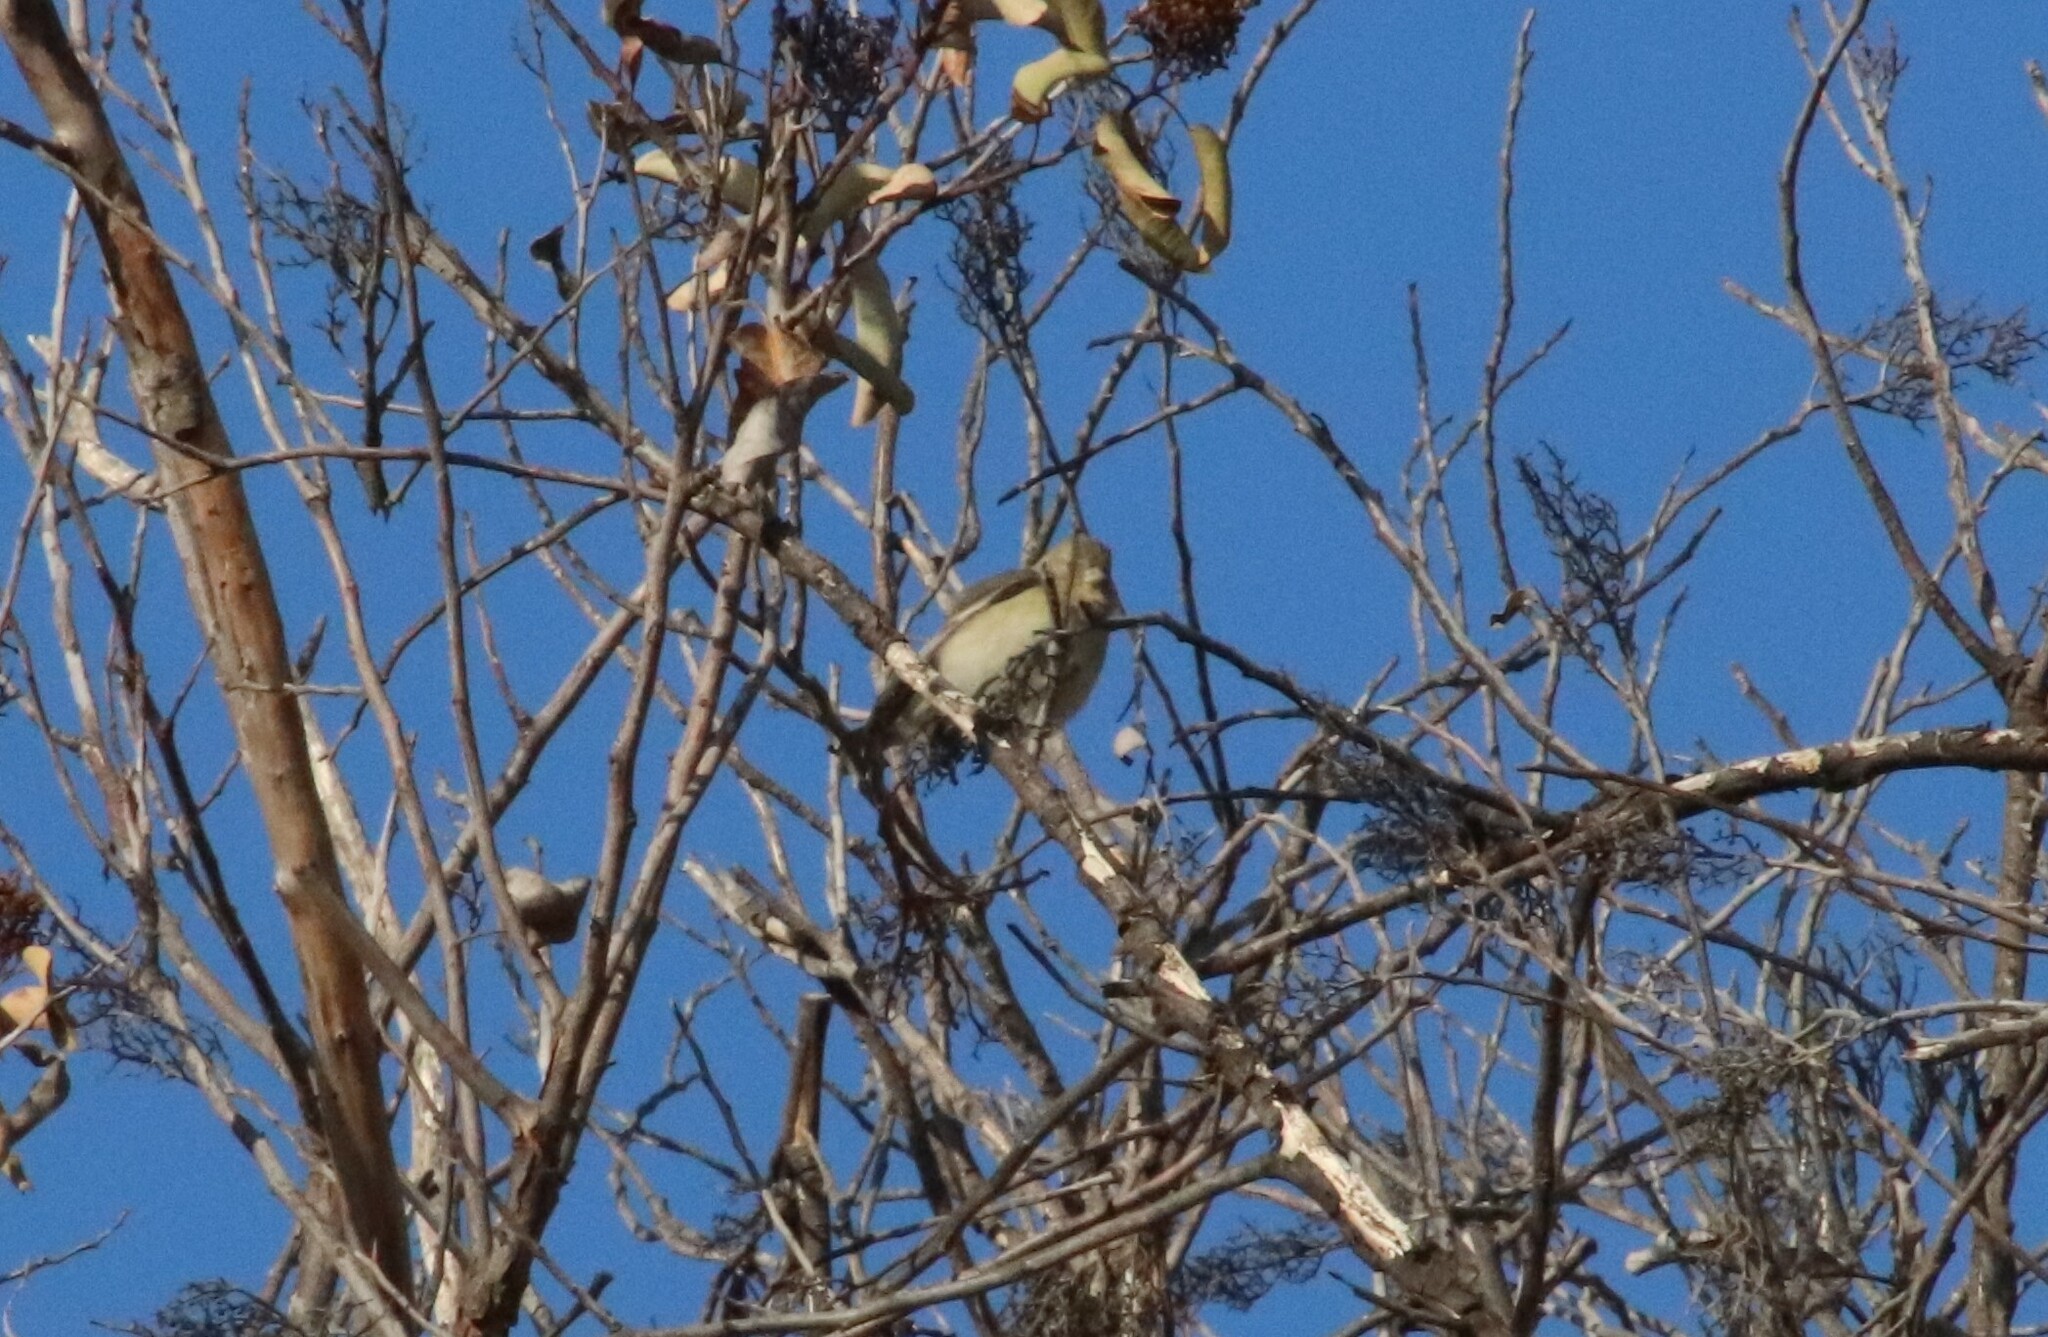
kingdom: Animalia
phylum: Chordata
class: Aves
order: Passeriformes
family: Cardinalidae
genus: Passerina
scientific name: Passerina amoena
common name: Lazuli bunting
